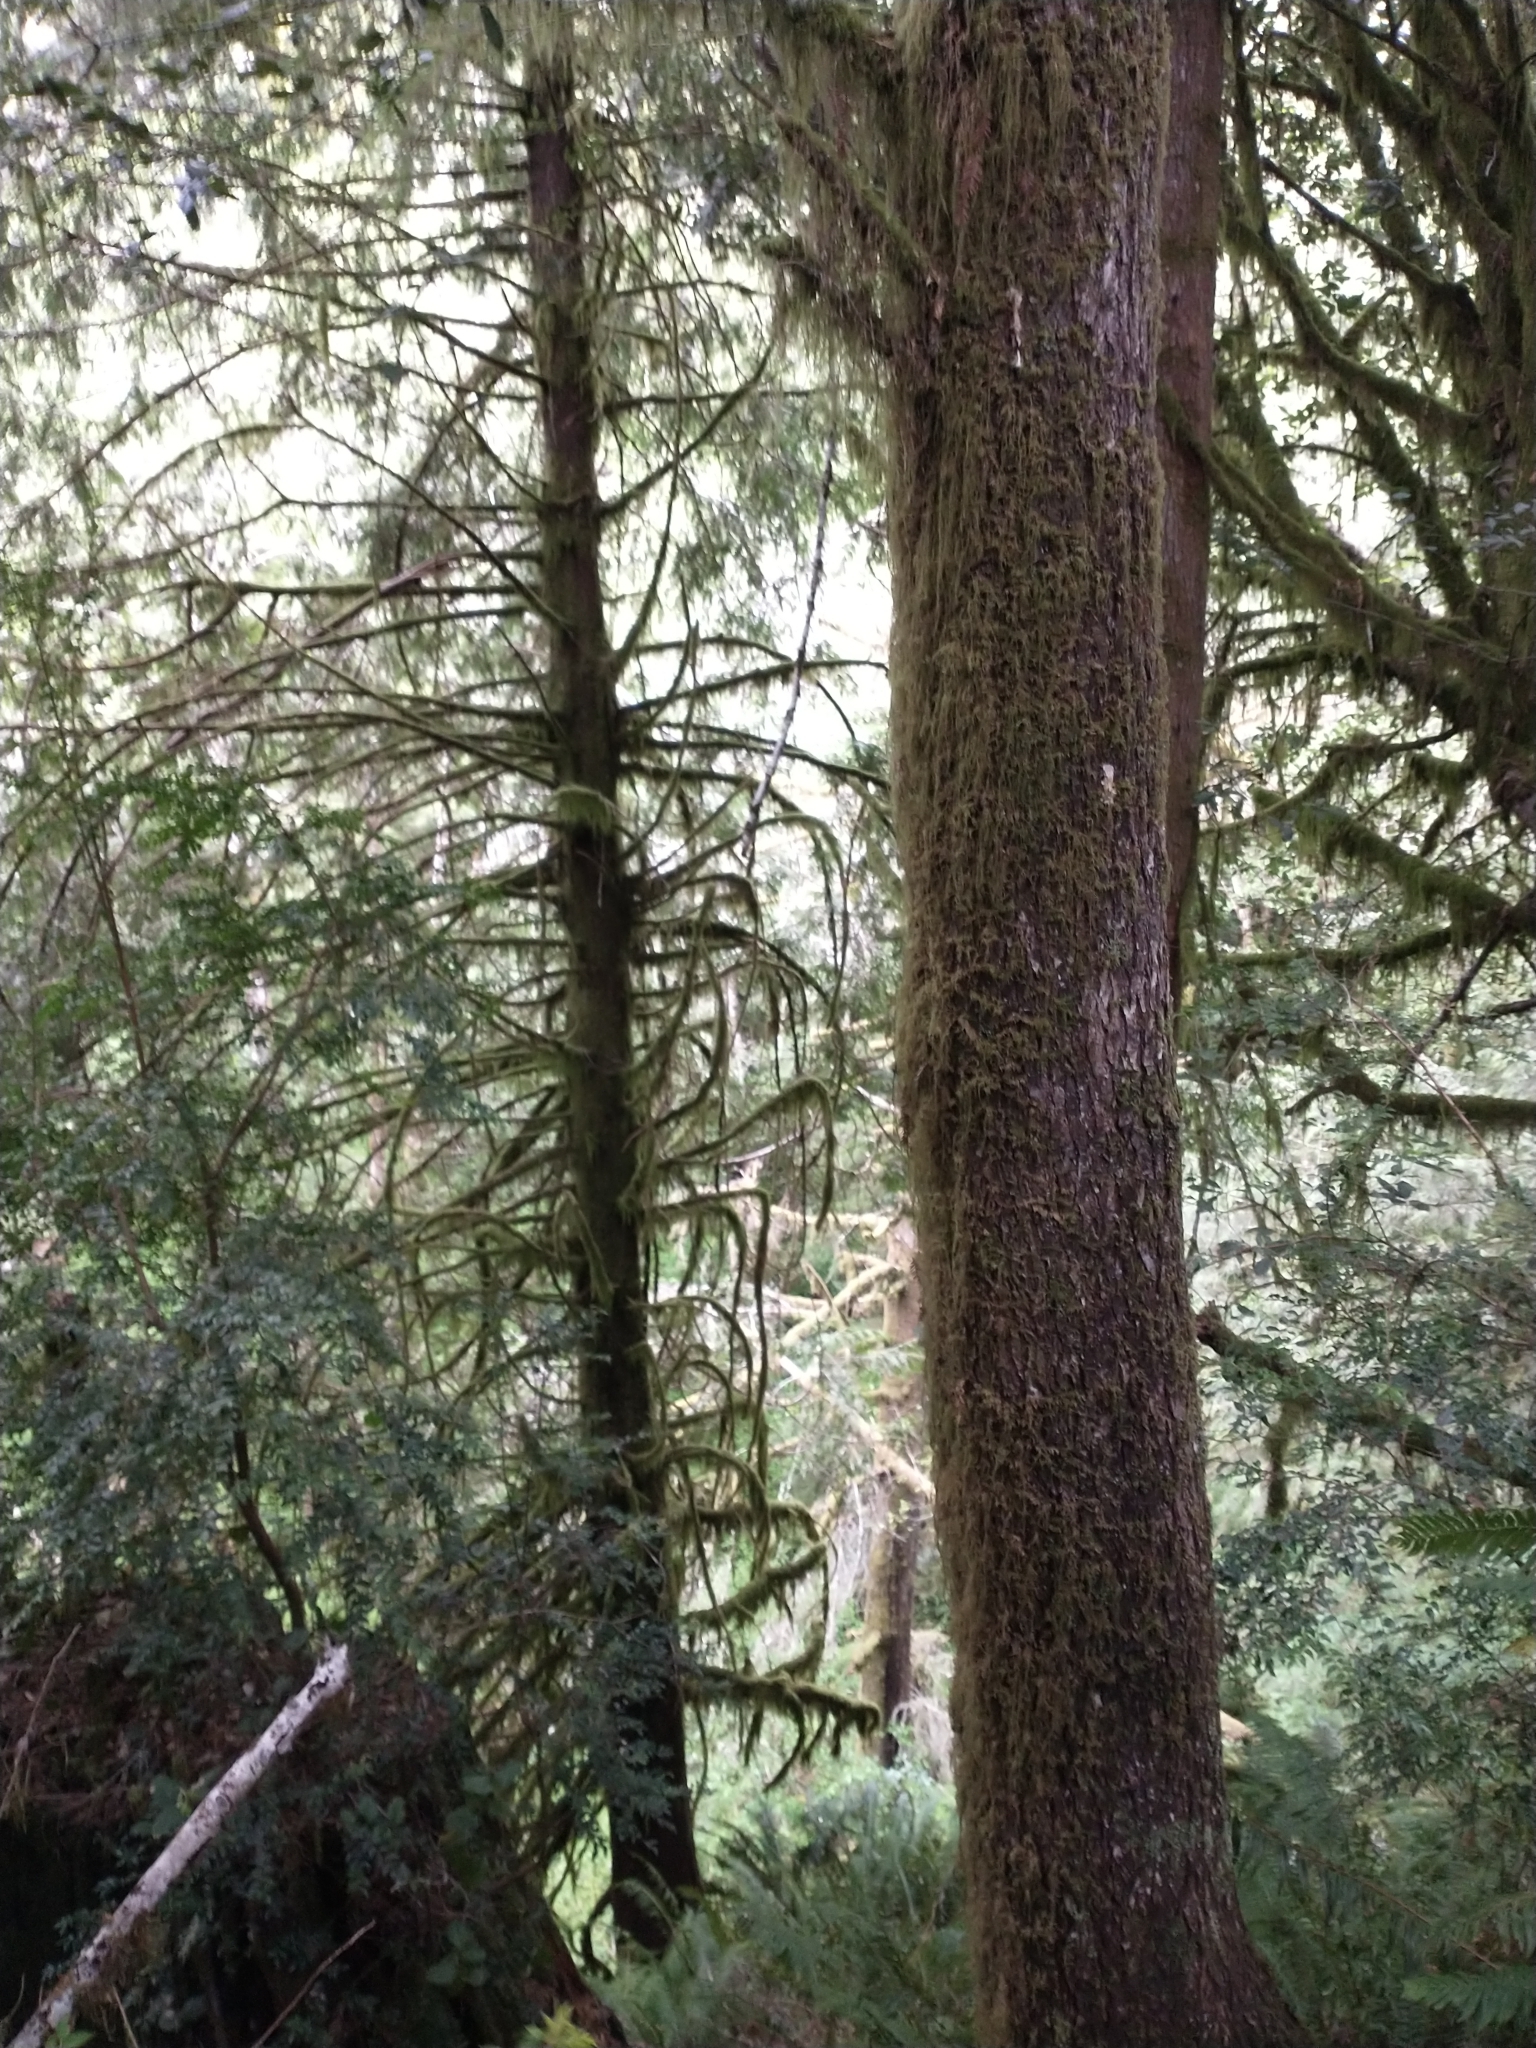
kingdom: Plantae
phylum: Tracheophyta
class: Pinopsida
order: Pinales
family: Pinaceae
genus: Tsuga
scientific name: Tsuga heterophylla
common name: Western hemlock
